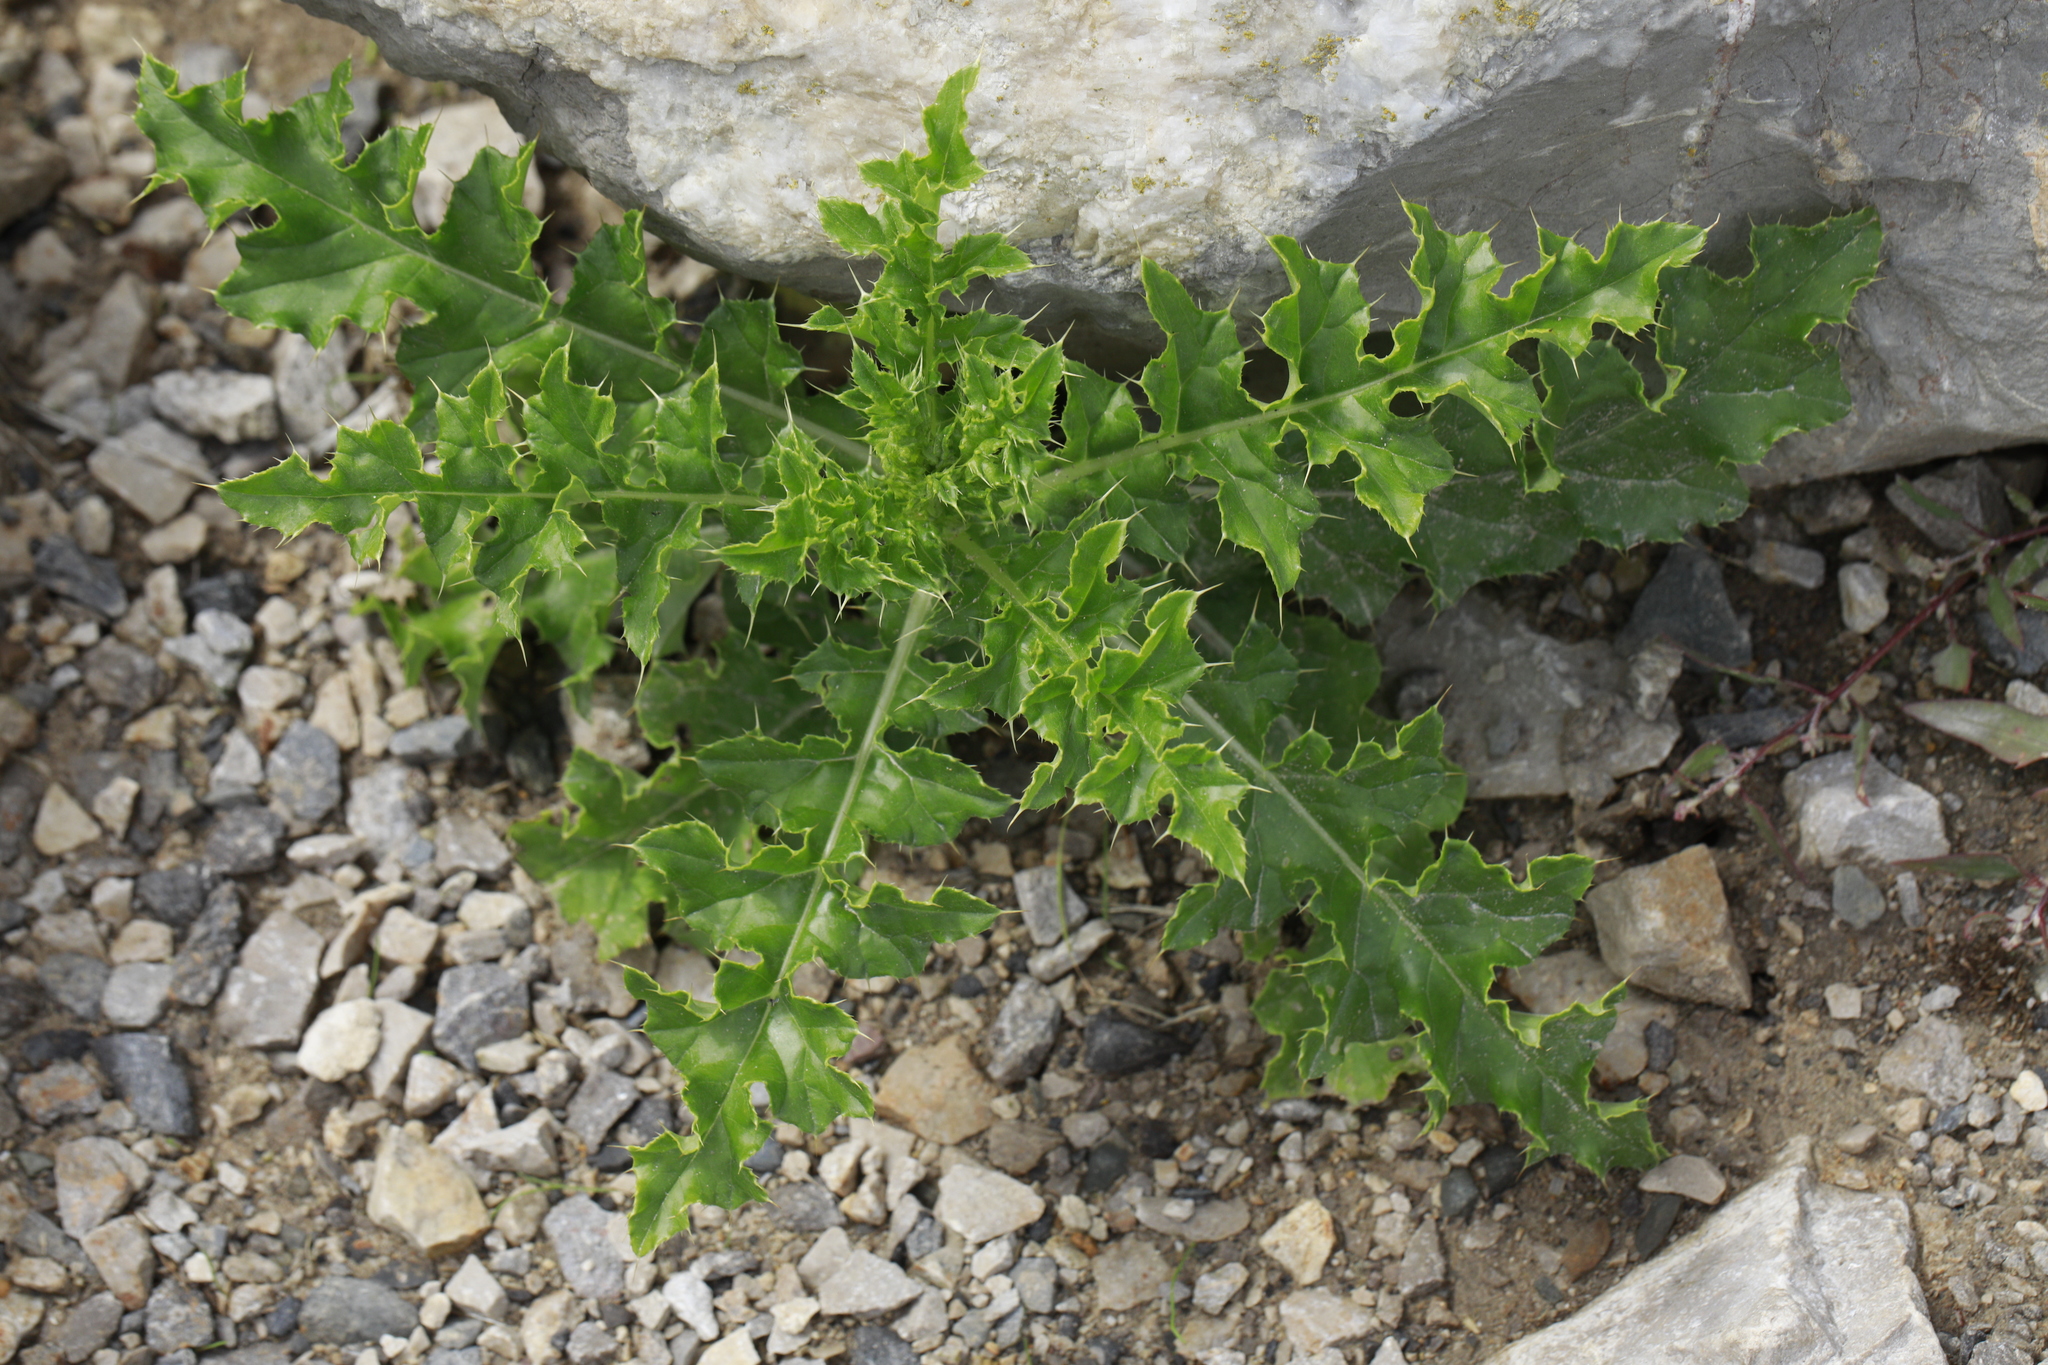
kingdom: Plantae
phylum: Tracheophyta
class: Magnoliopsida
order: Asterales
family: Asteraceae
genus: Cirsium
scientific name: Cirsium arvense
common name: Creeping thistle
